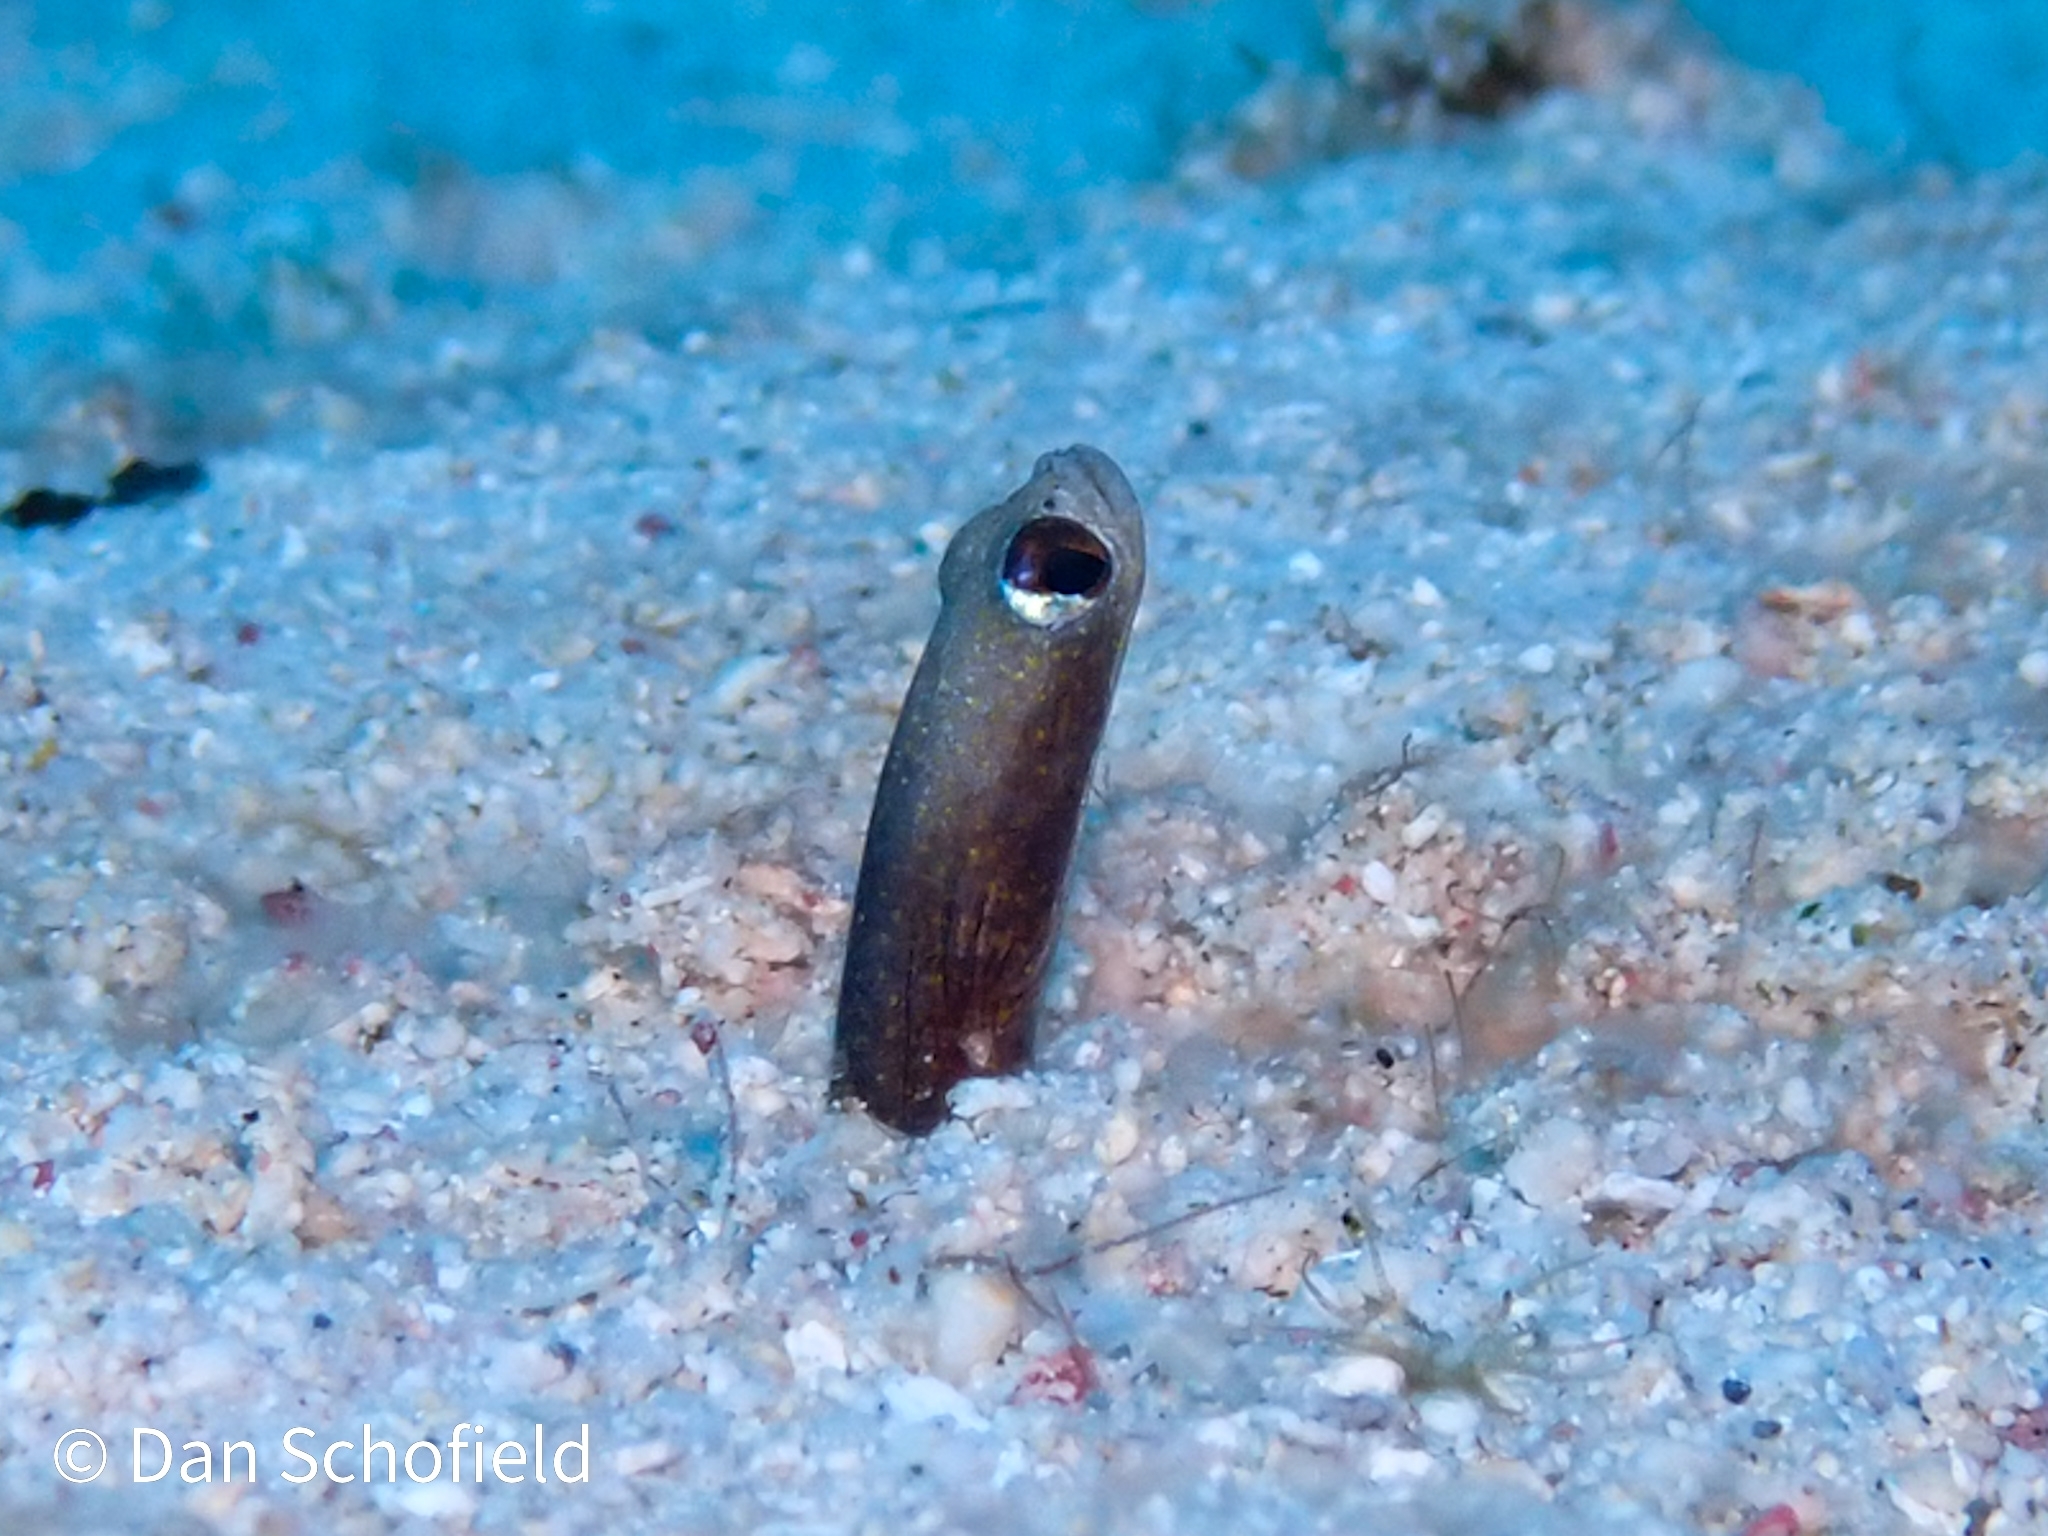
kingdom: Animalia
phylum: Chordata
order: Anguilliformes
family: Congridae
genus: Heteroconger
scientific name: Heteroconger longissimus
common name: Garden eel
